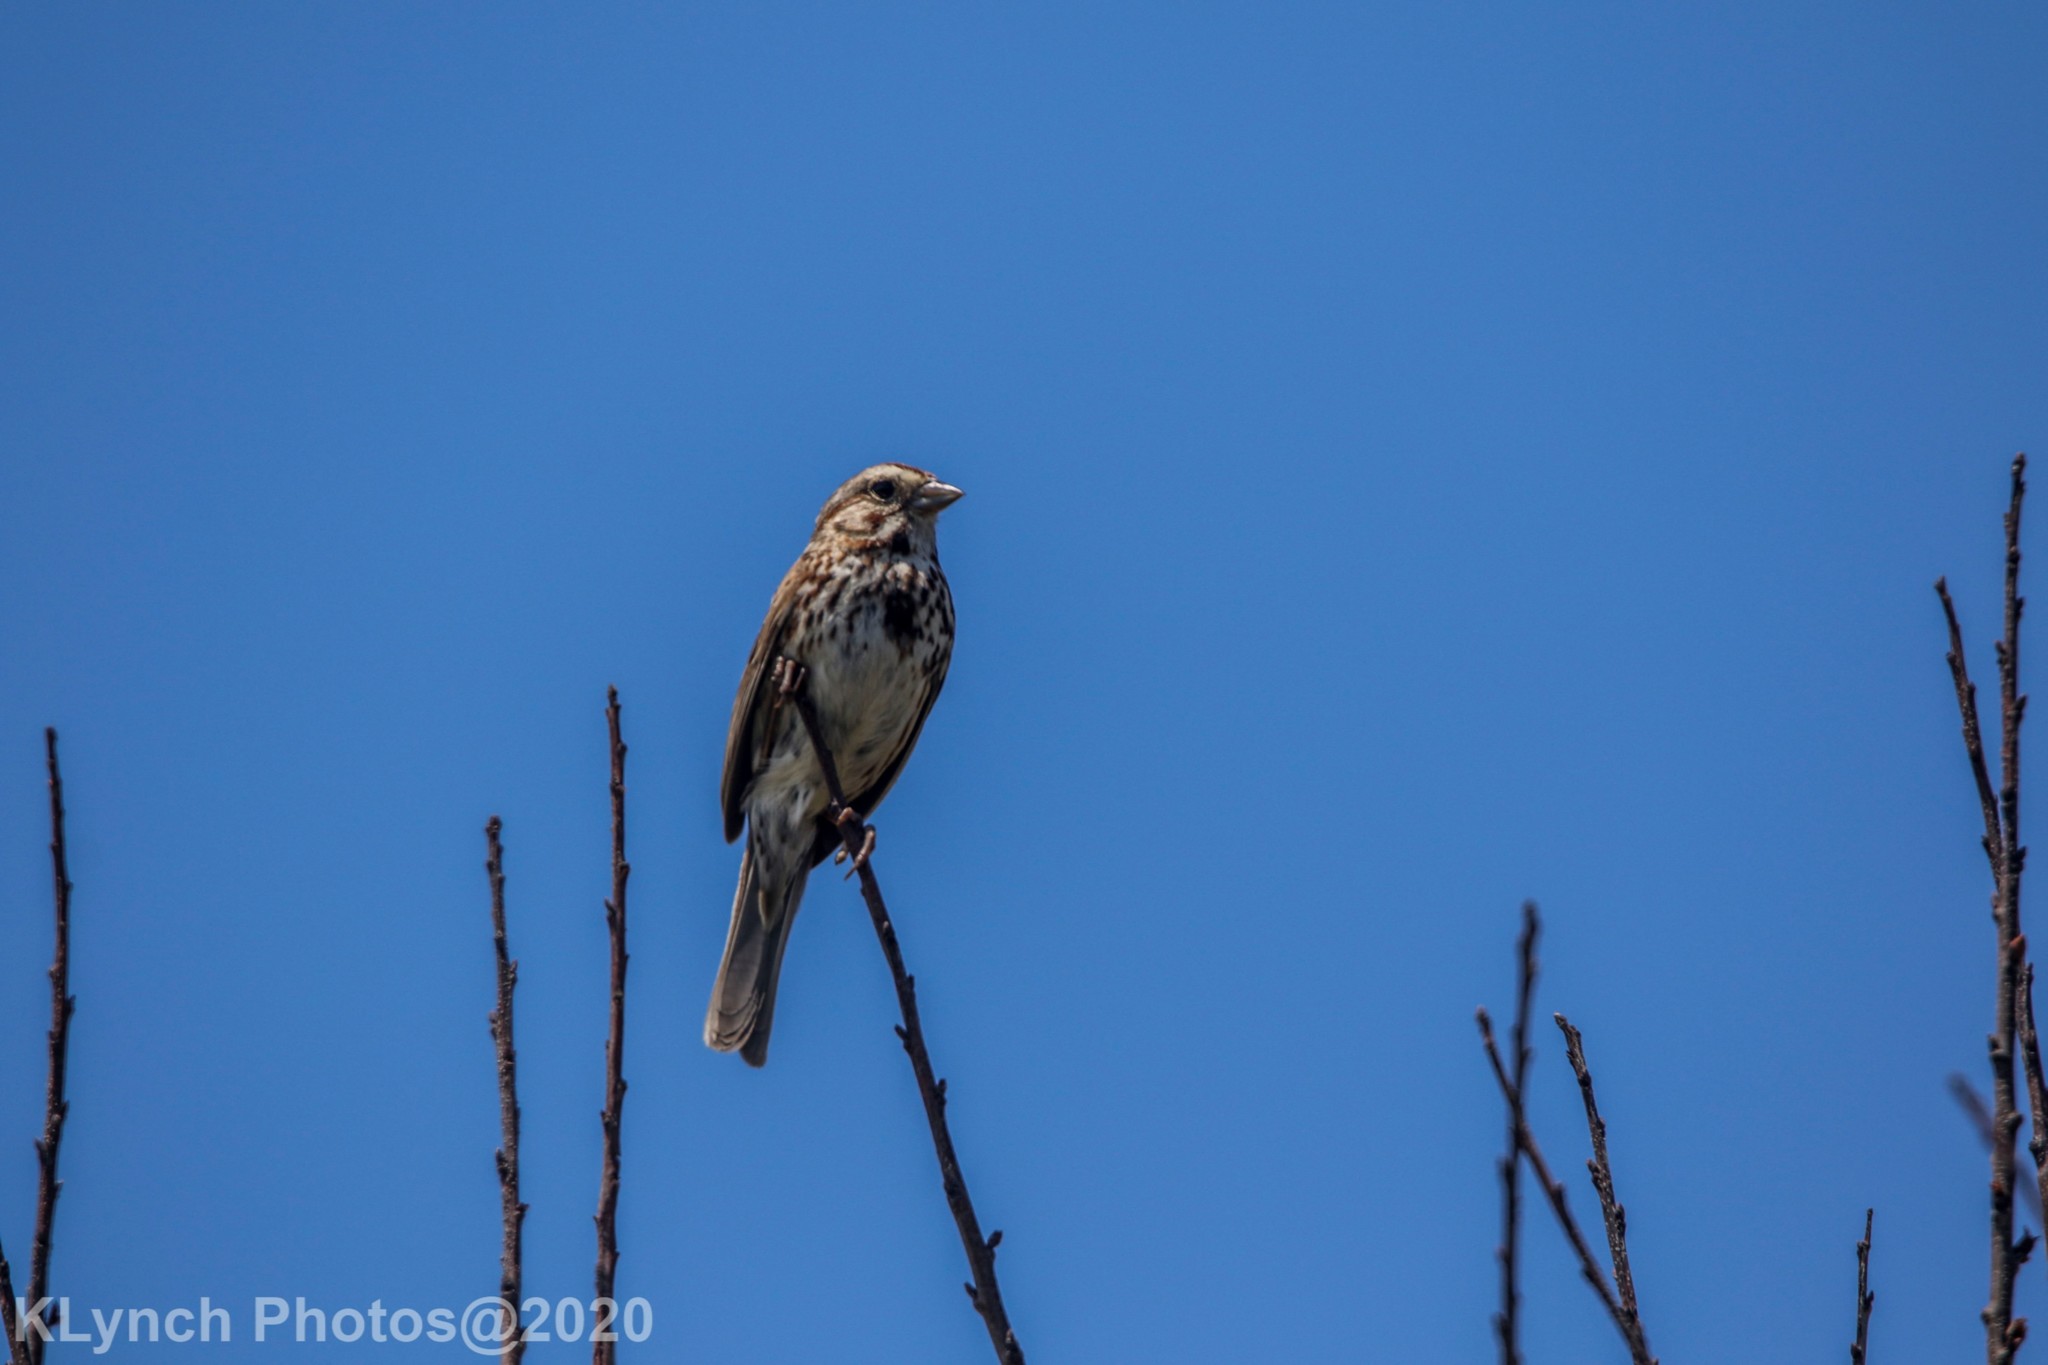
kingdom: Animalia
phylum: Chordata
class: Aves
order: Passeriformes
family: Passerellidae
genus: Melospiza
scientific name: Melospiza melodia
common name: Song sparrow
